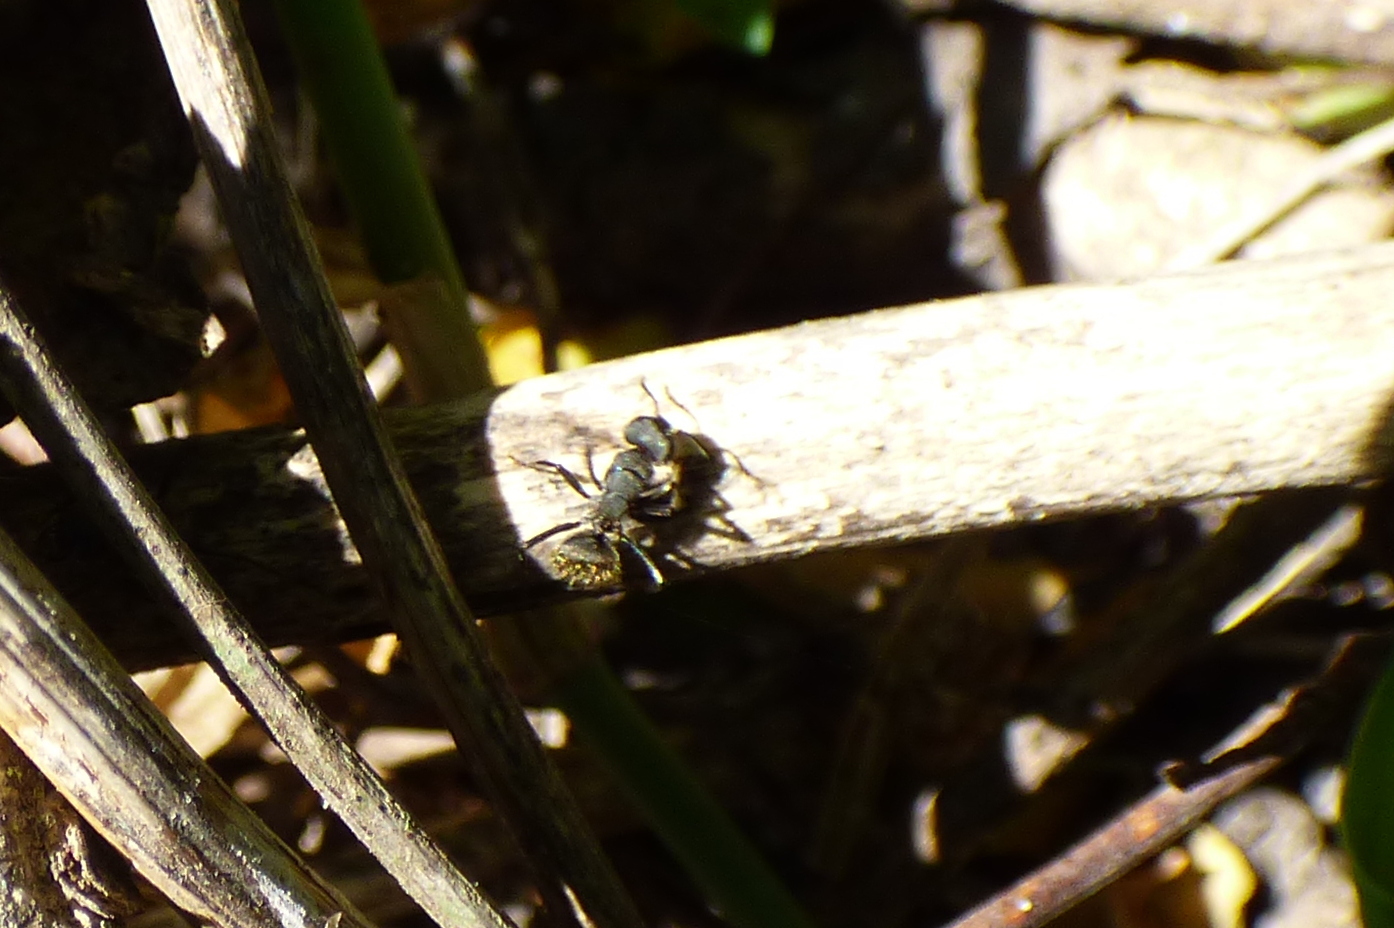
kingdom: Animalia
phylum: Arthropoda
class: Insecta
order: Hymenoptera
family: Formicidae
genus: Camponotus
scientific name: Camponotus mus
